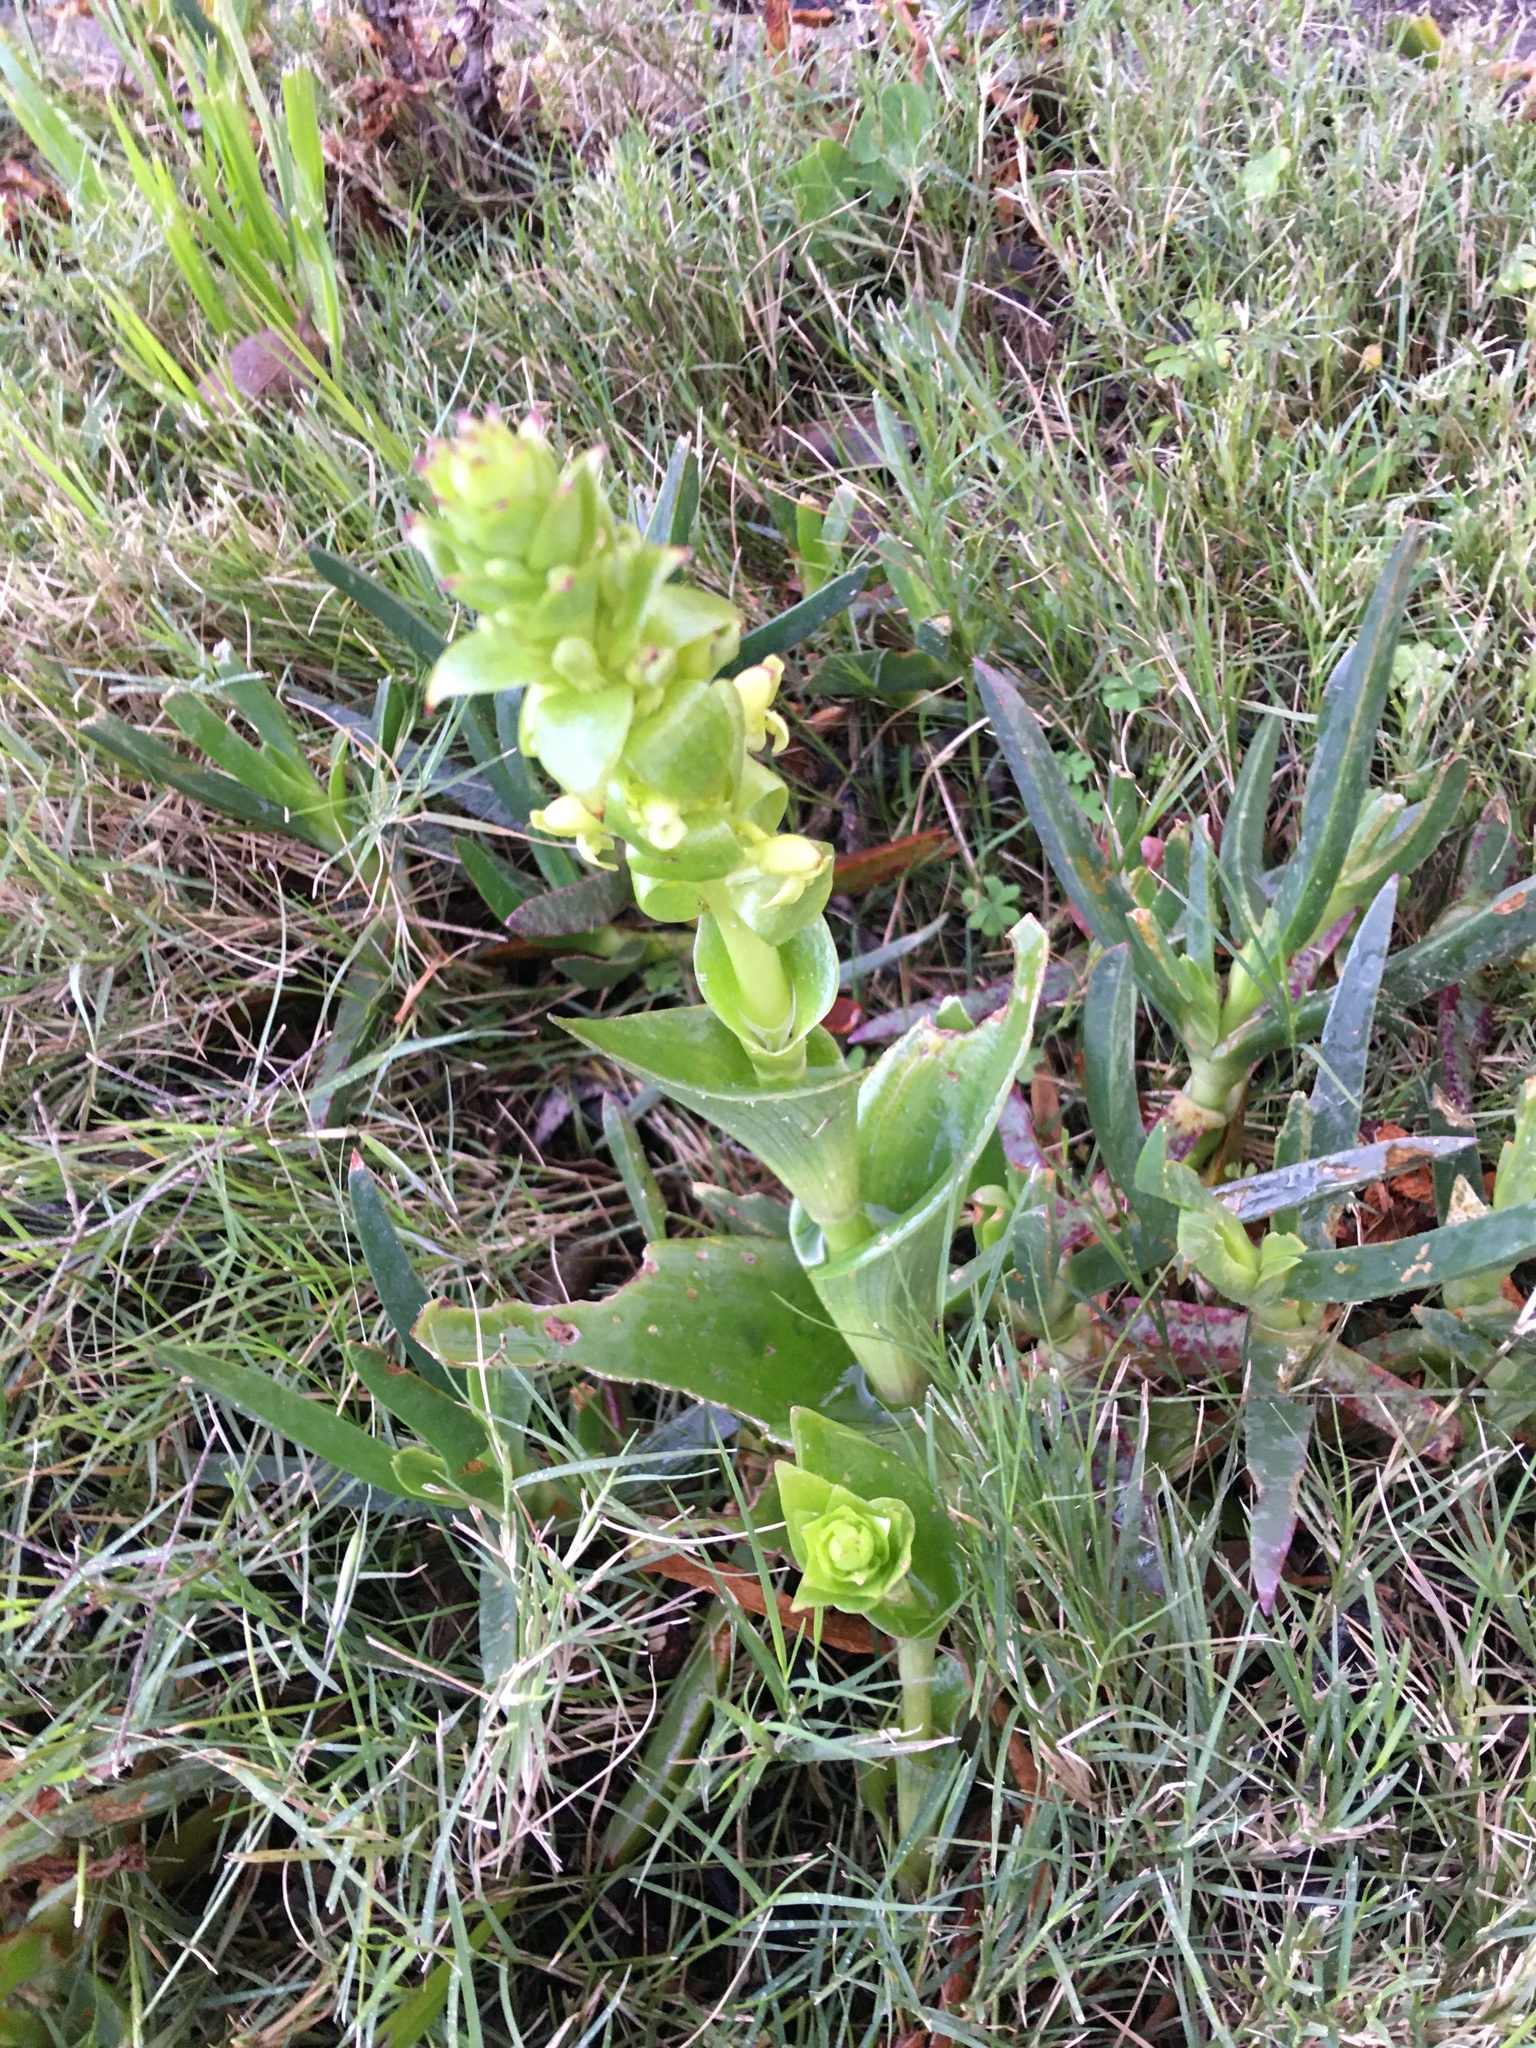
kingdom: Plantae
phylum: Tracheophyta
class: Liliopsida
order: Asparagales
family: Orchidaceae
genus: Satyrium
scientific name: Satyrium odorum
